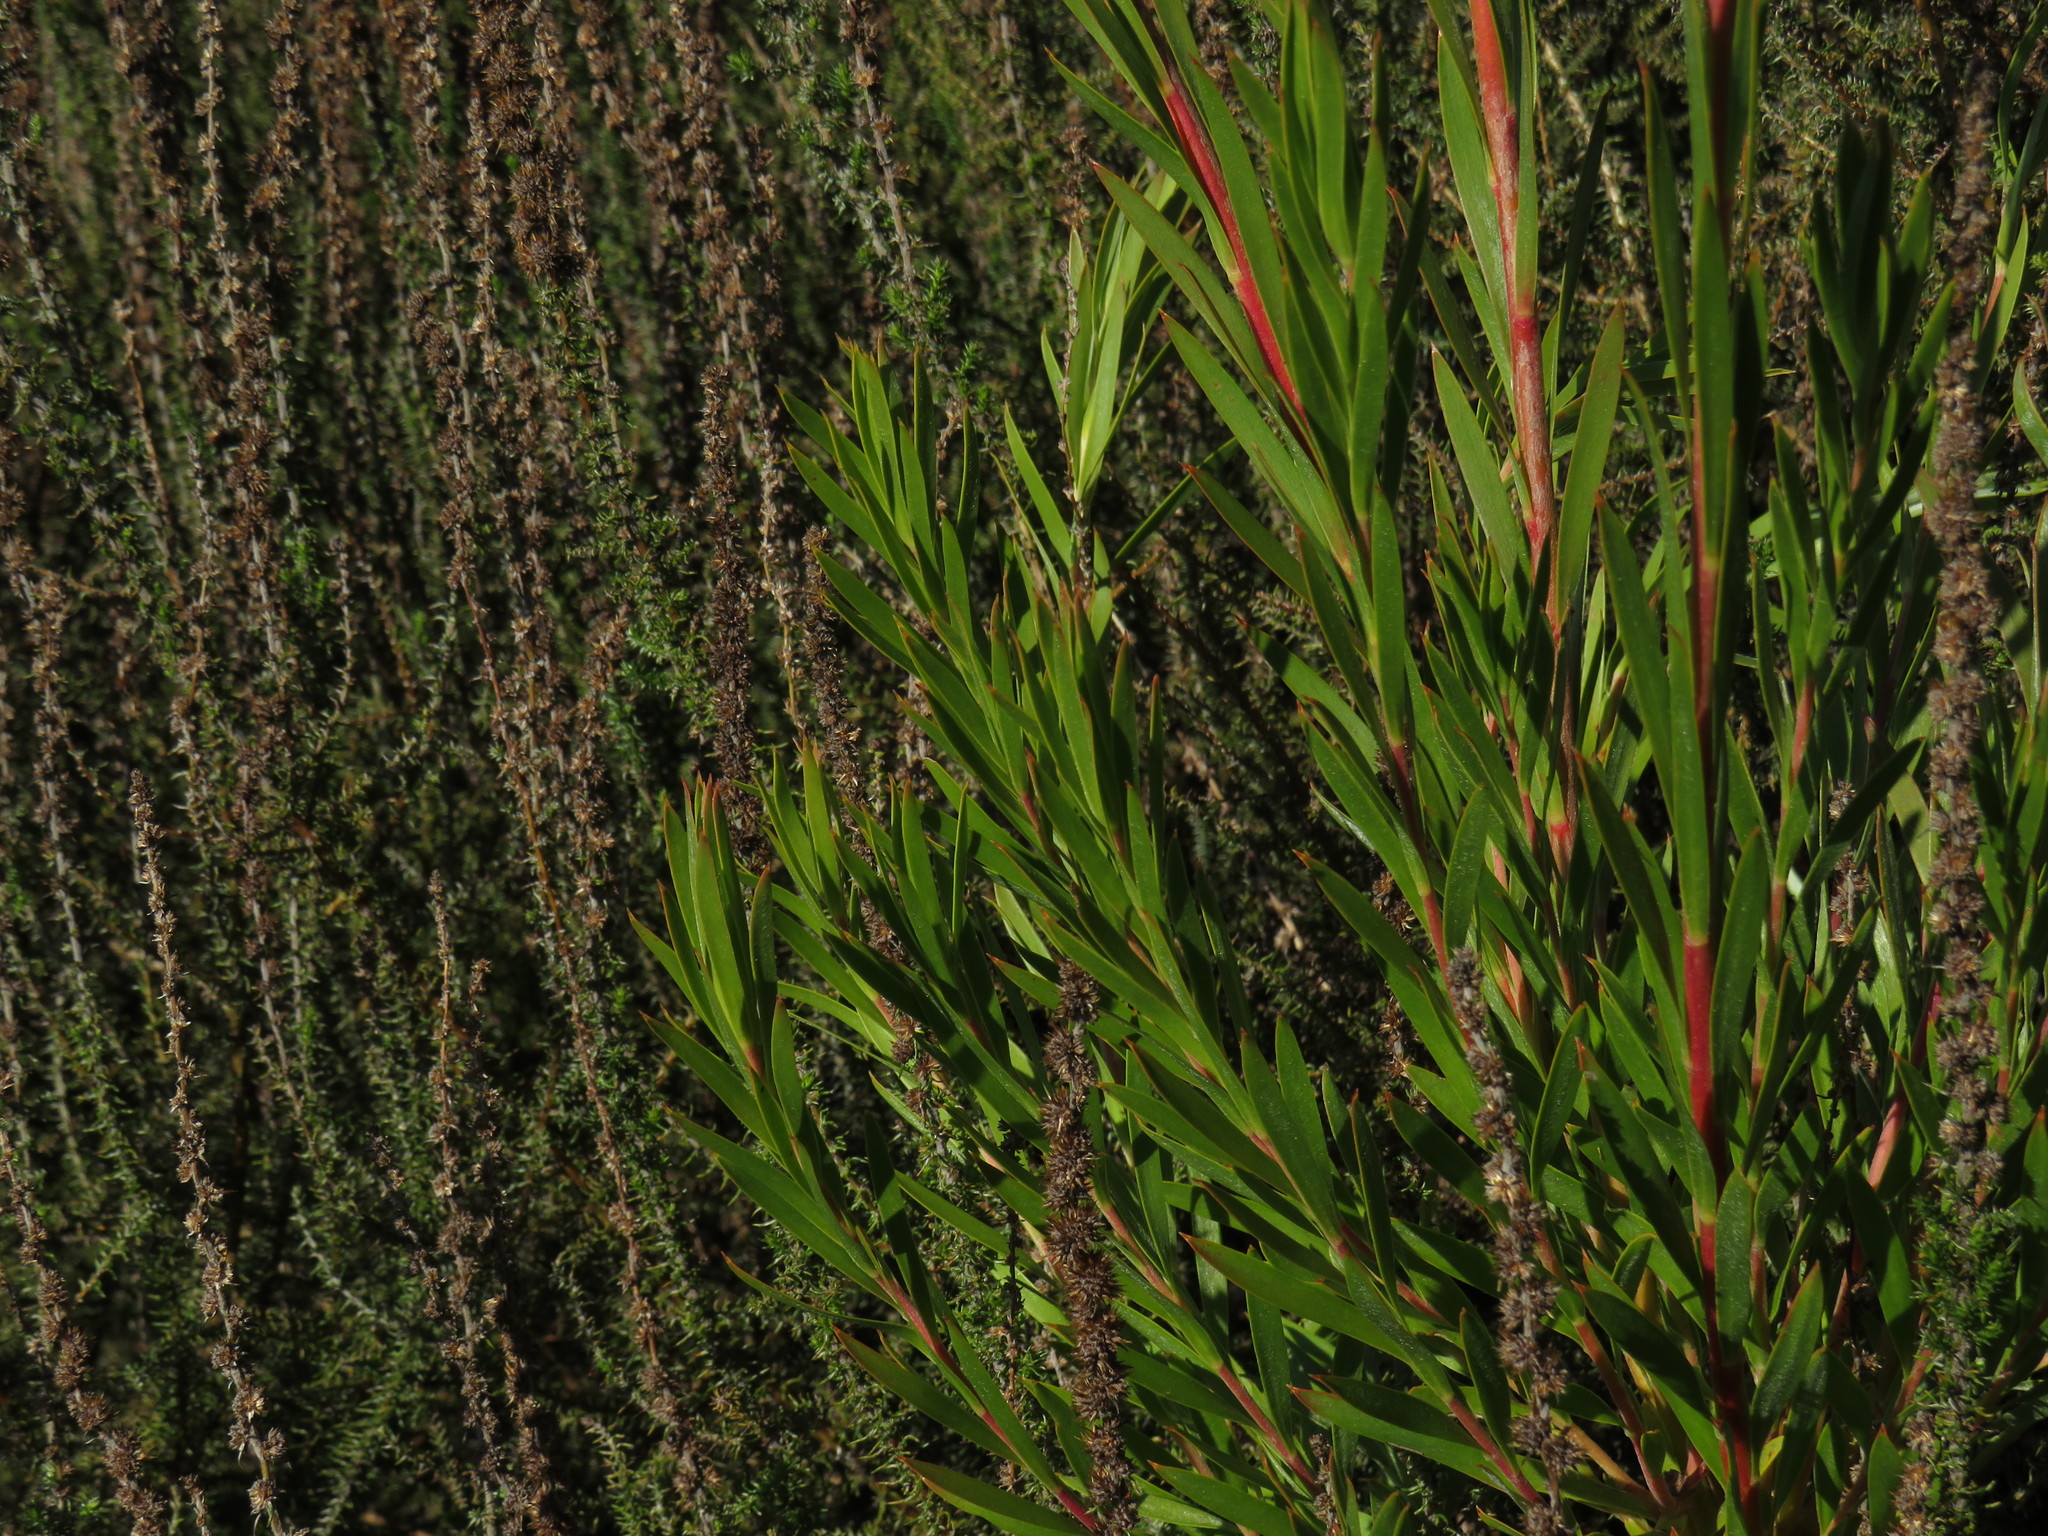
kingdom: Plantae
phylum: Tracheophyta
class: Magnoliopsida
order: Proteales
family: Proteaceae
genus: Leucadendron
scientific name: Leucadendron xanthoconus
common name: Sickle-leaf conebush
